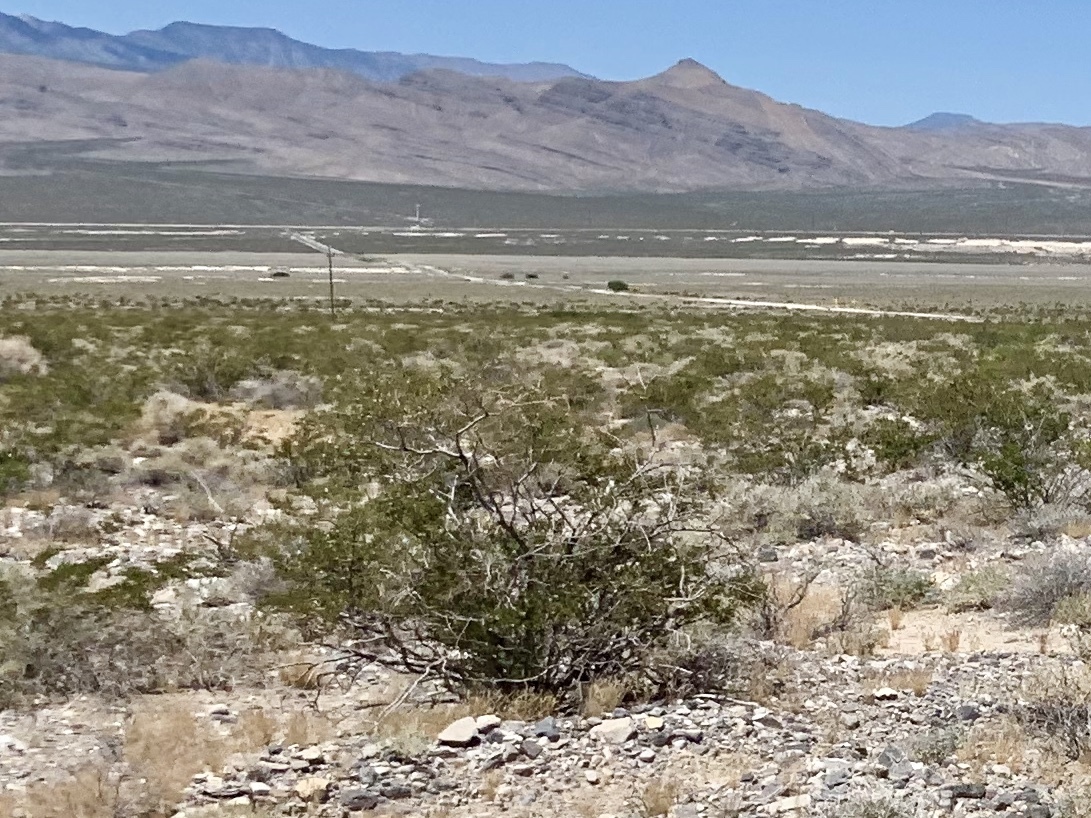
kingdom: Plantae
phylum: Tracheophyta
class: Magnoliopsida
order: Zygophyllales
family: Zygophyllaceae
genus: Larrea
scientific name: Larrea tridentata
